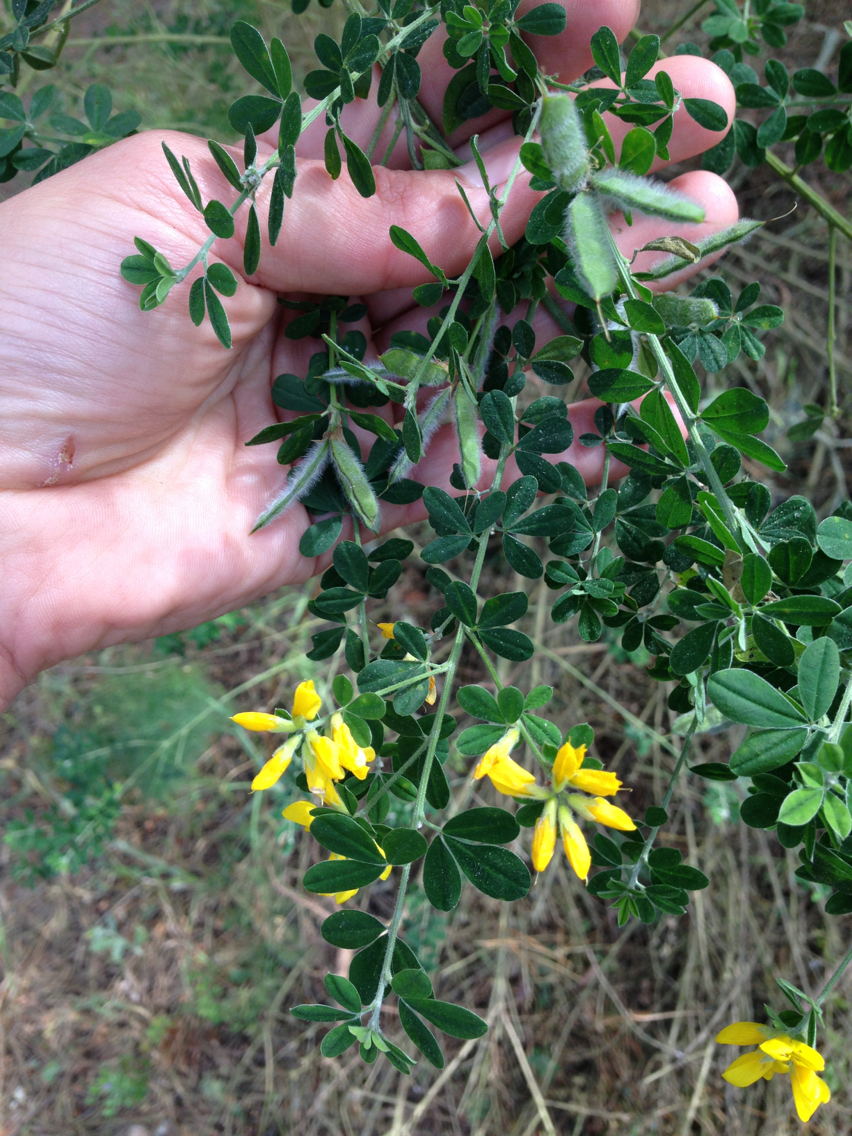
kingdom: Plantae
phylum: Tracheophyta
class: Magnoliopsida
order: Fabales
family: Fabaceae
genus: Genista
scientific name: Genista monspessulana
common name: Montpellier broom
